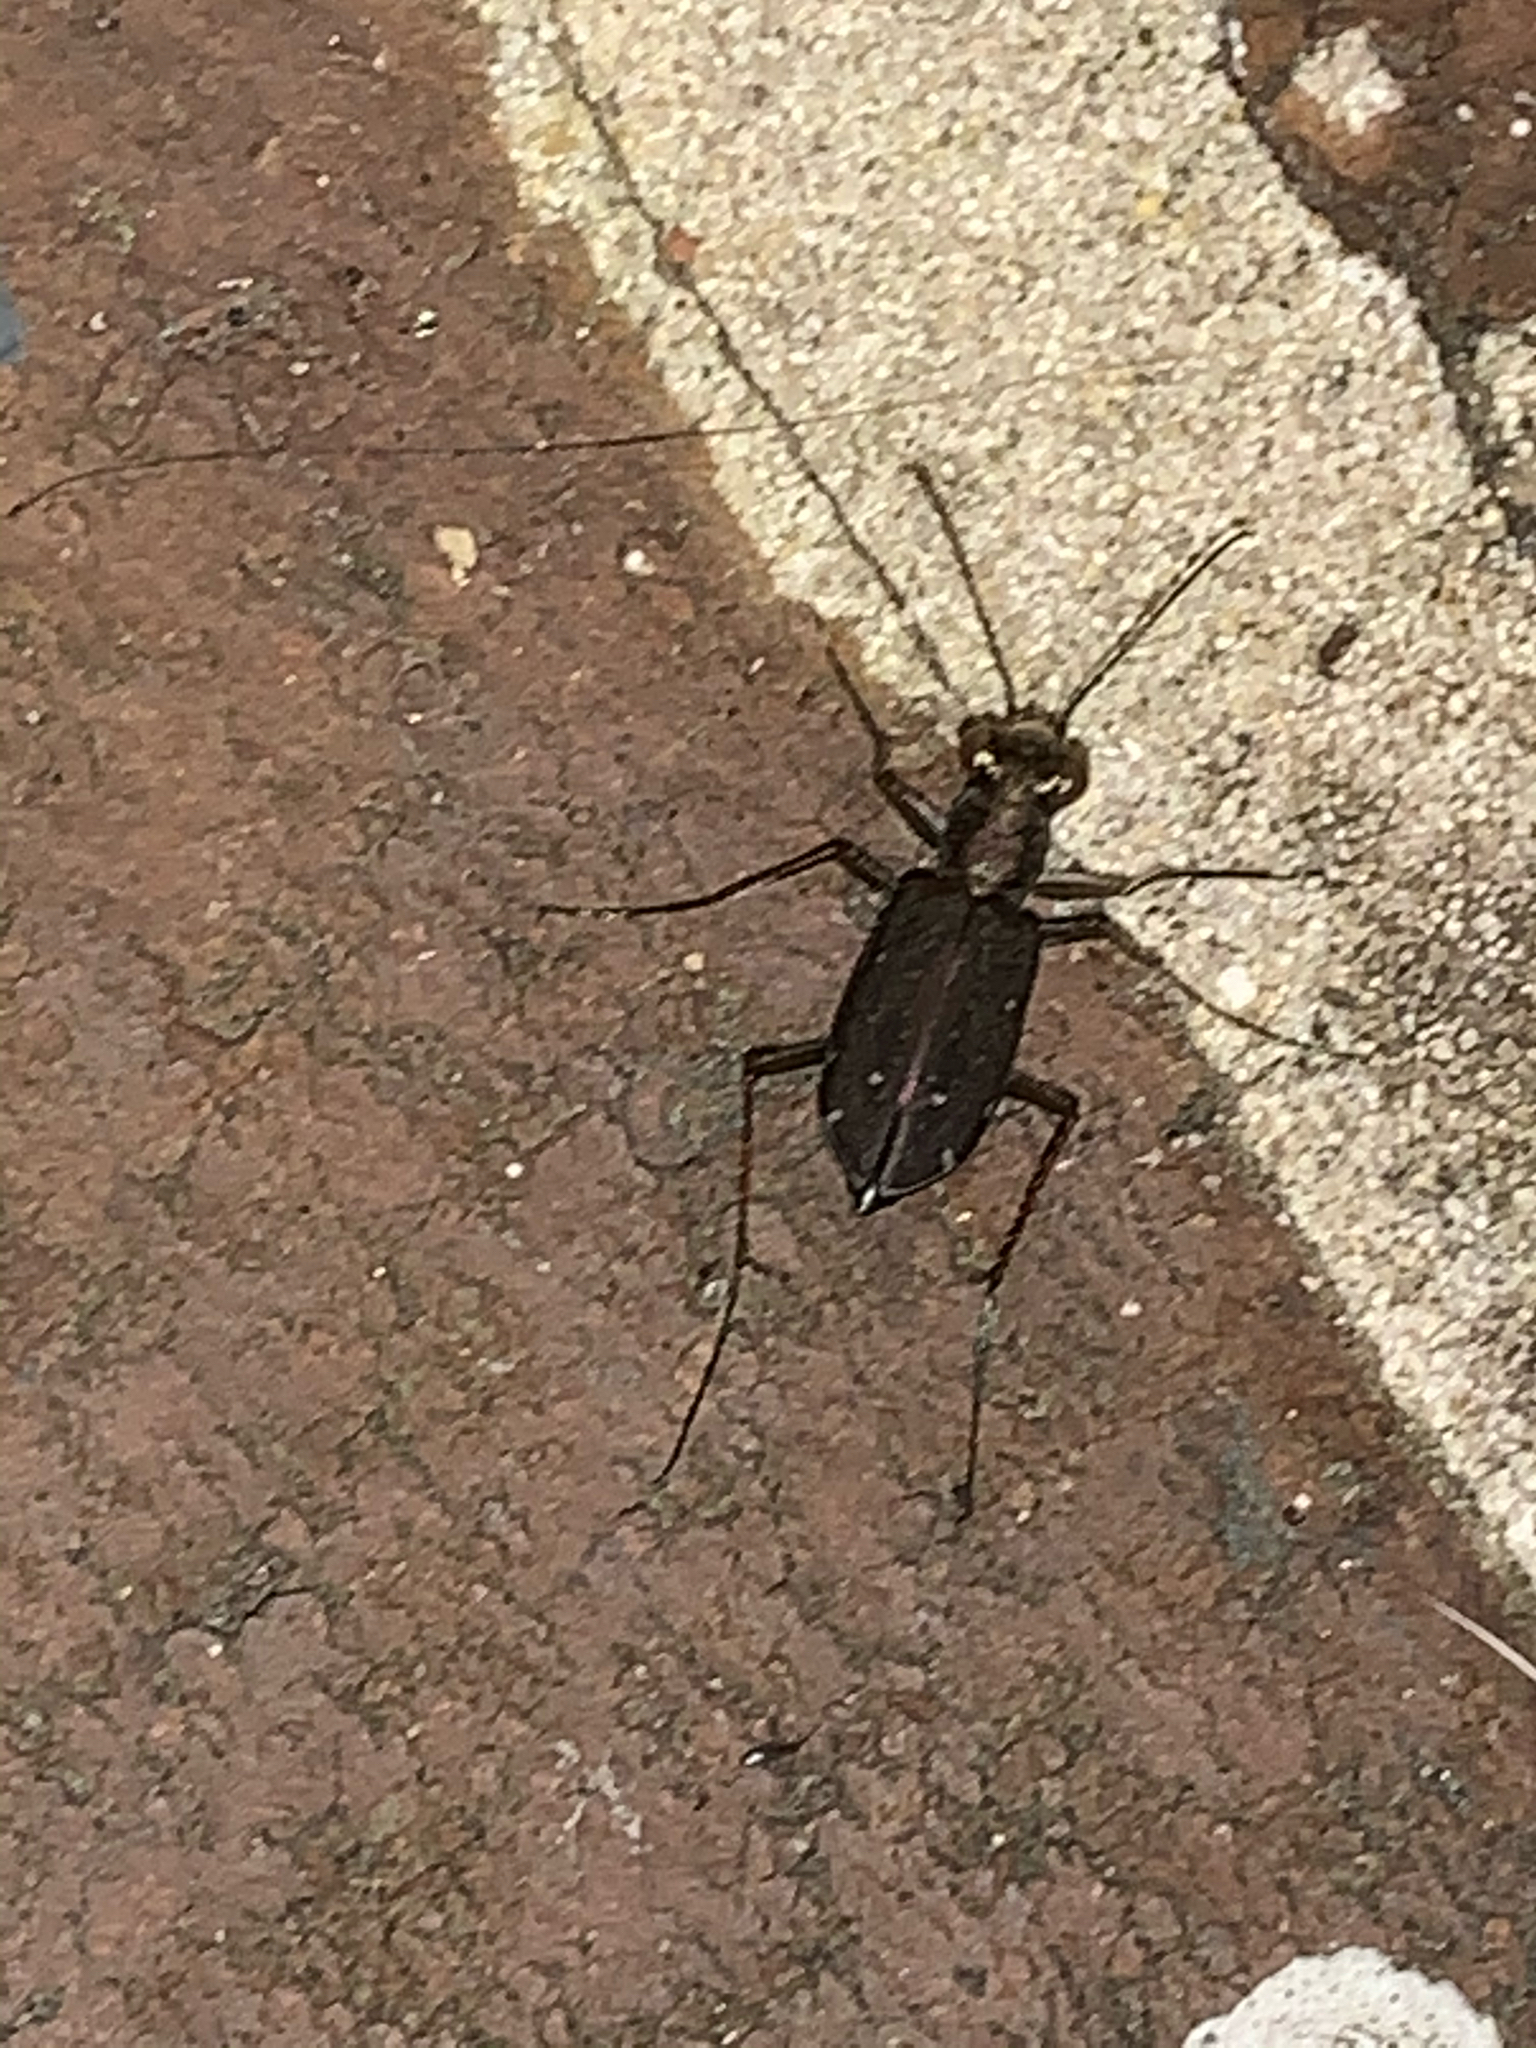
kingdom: Animalia
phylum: Arthropoda
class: Insecta
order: Coleoptera
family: Carabidae
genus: Cicindela
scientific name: Cicindela punctulata
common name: Punctured tiger beetle
